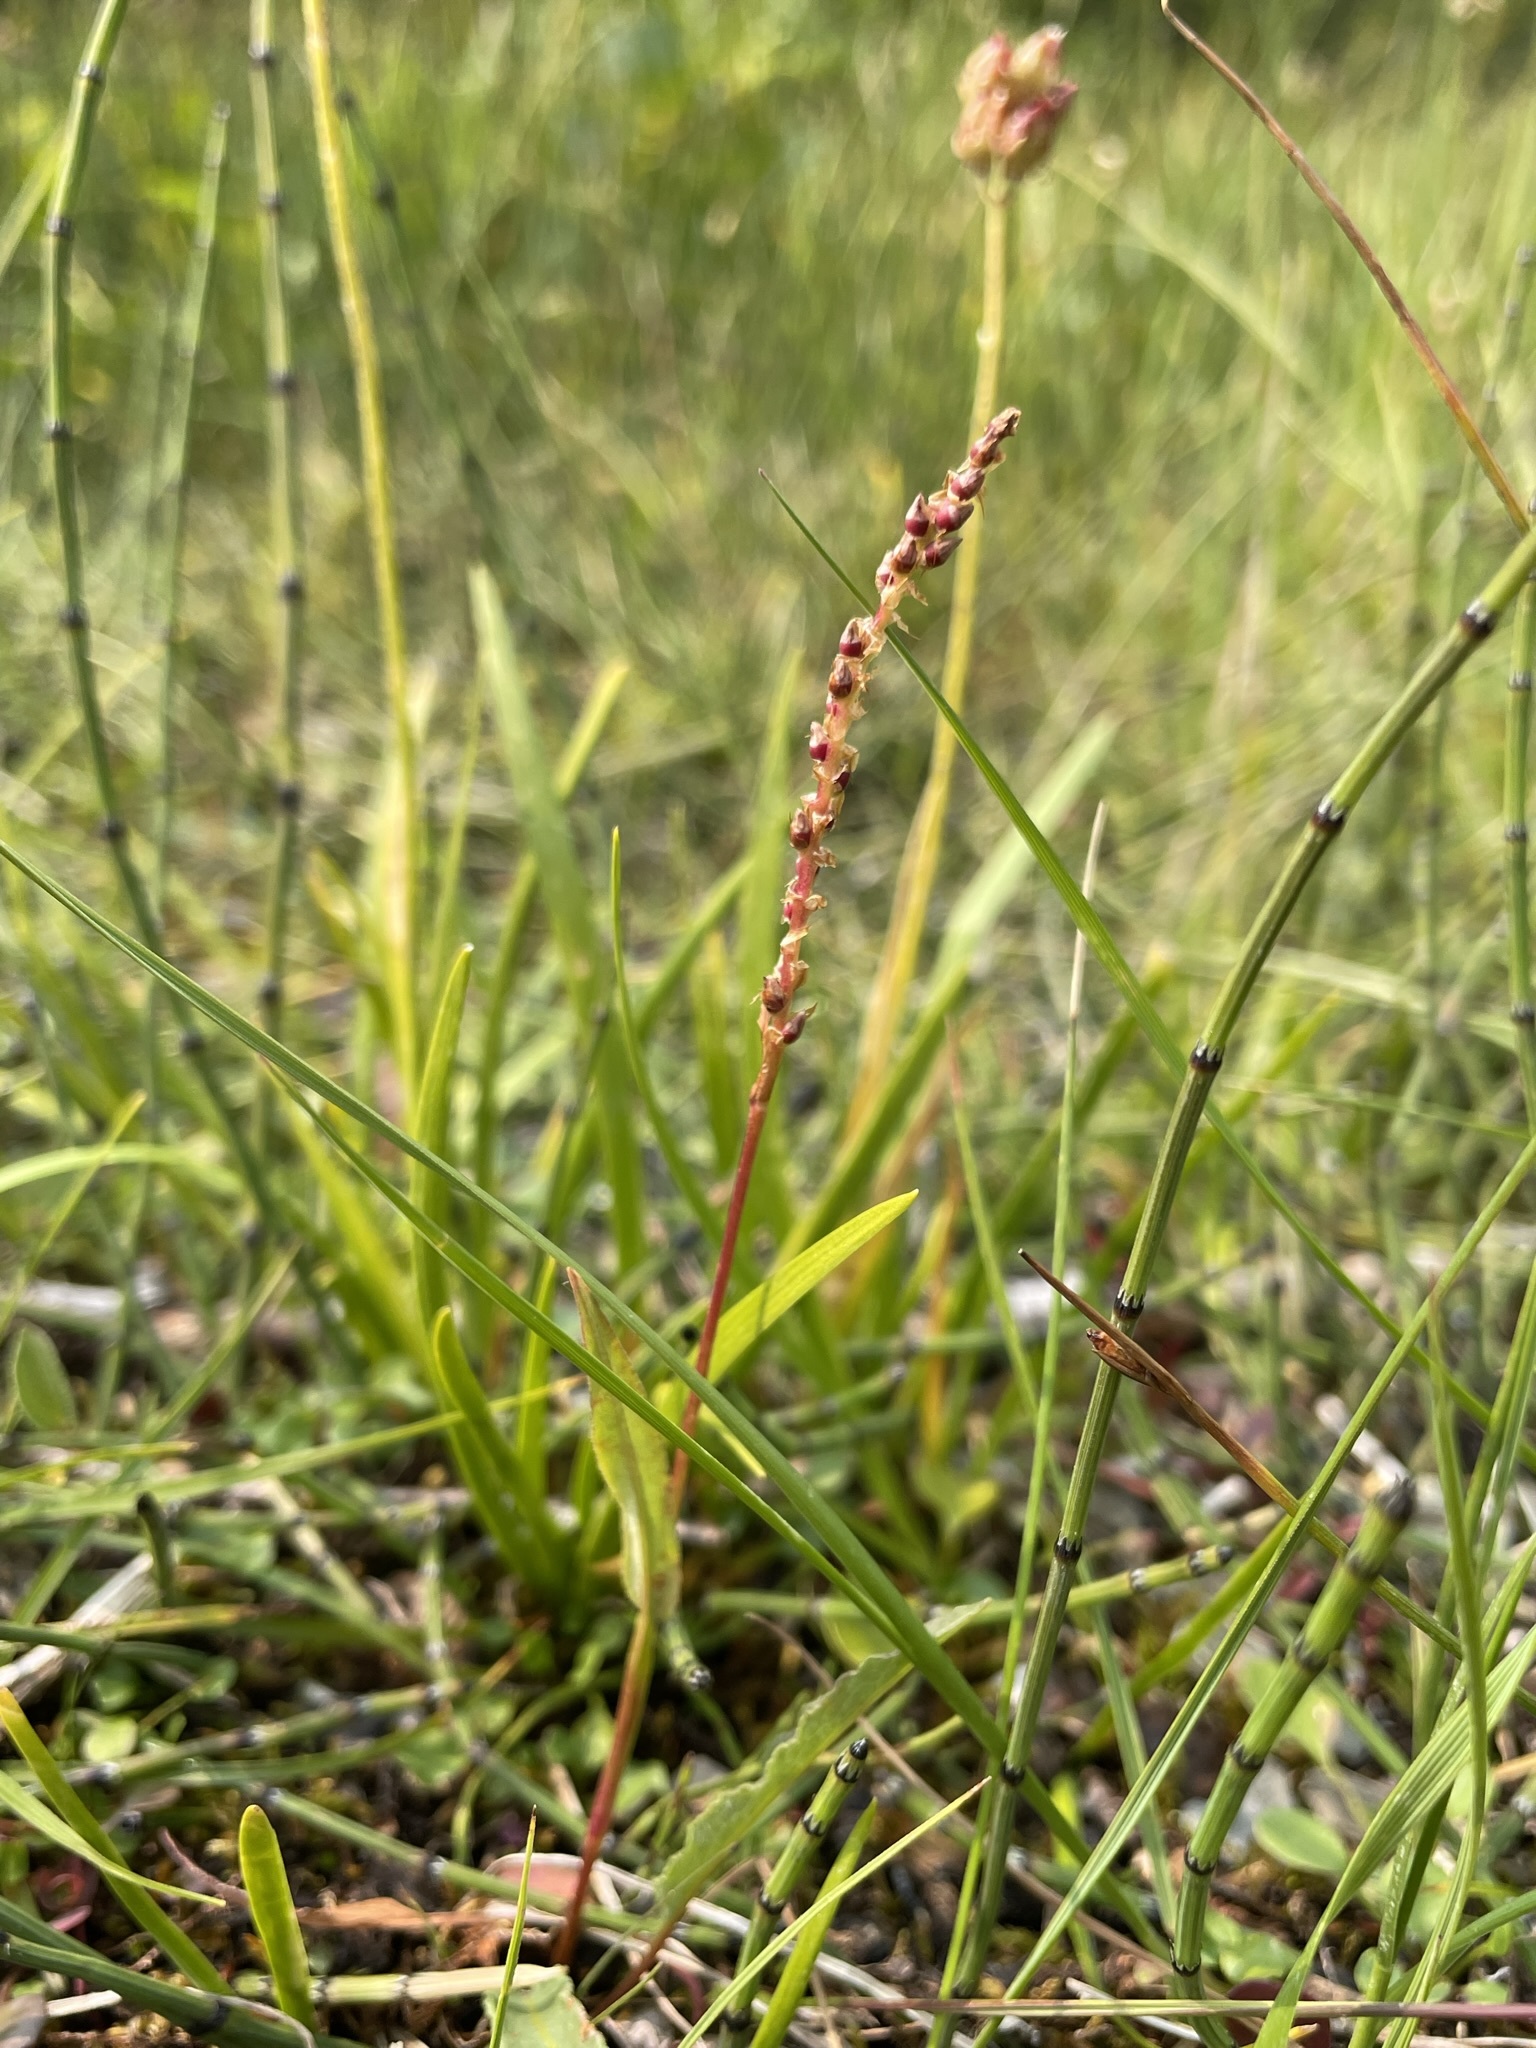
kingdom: Plantae
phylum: Tracheophyta
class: Magnoliopsida
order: Caryophyllales
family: Polygonaceae
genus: Bistorta
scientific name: Bistorta vivipara
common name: Alpine bistort
